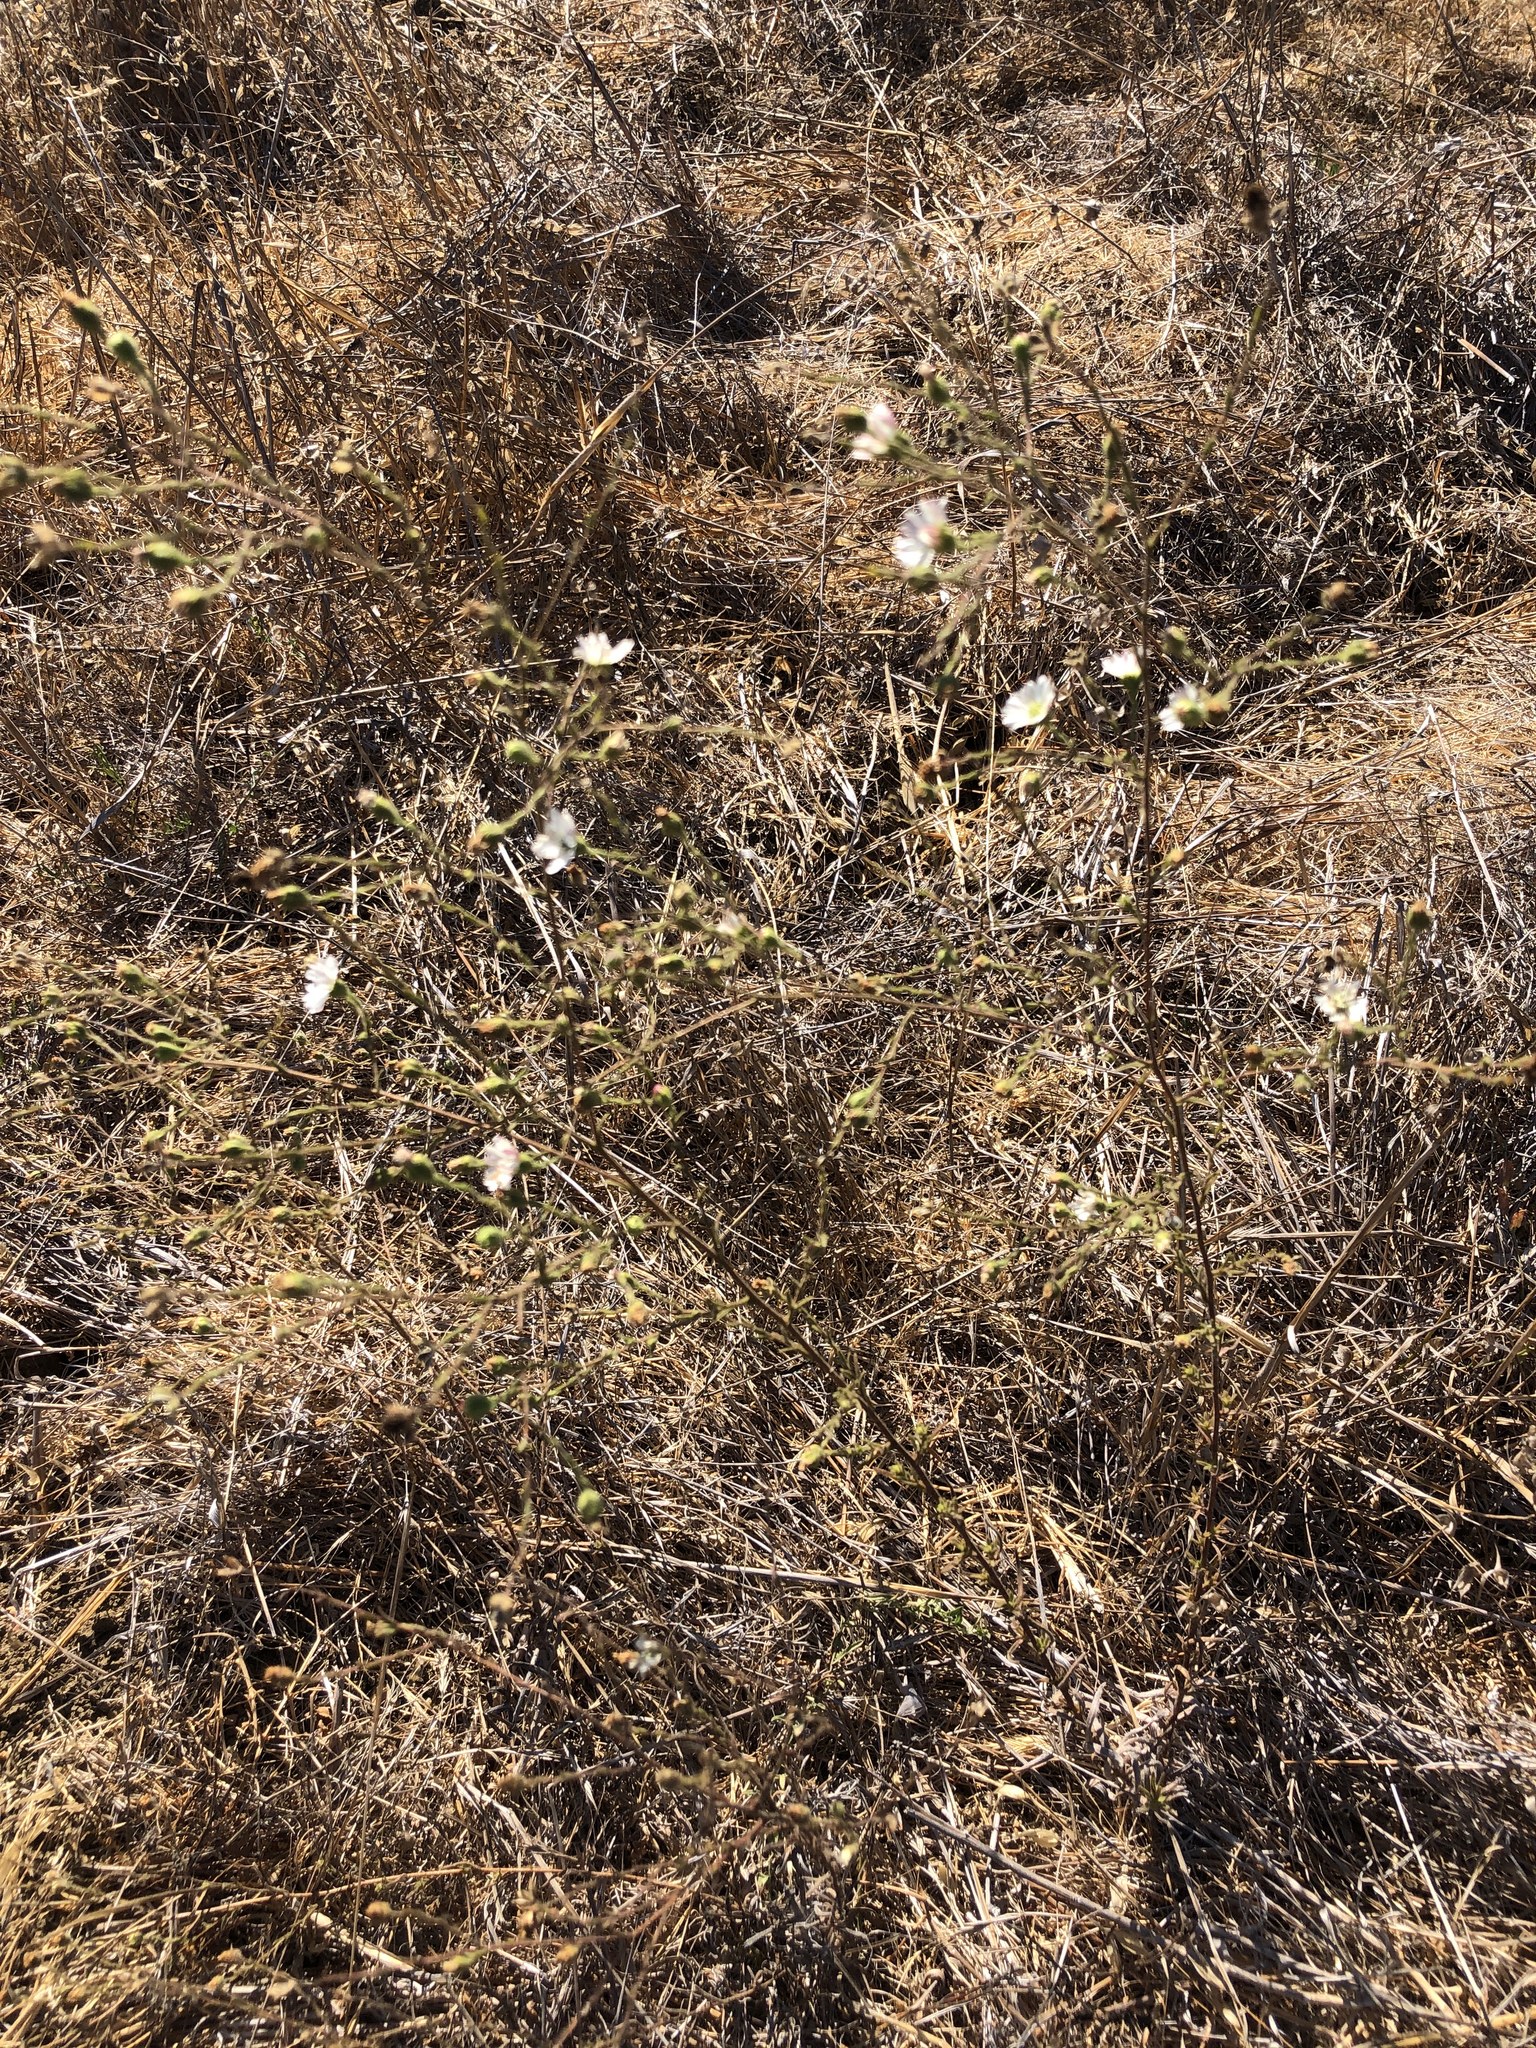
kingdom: Plantae
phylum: Tracheophyta
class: Magnoliopsida
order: Asterales
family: Asteraceae
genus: Hemizonia
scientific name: Hemizonia congesta
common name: Hayfield tarweed
